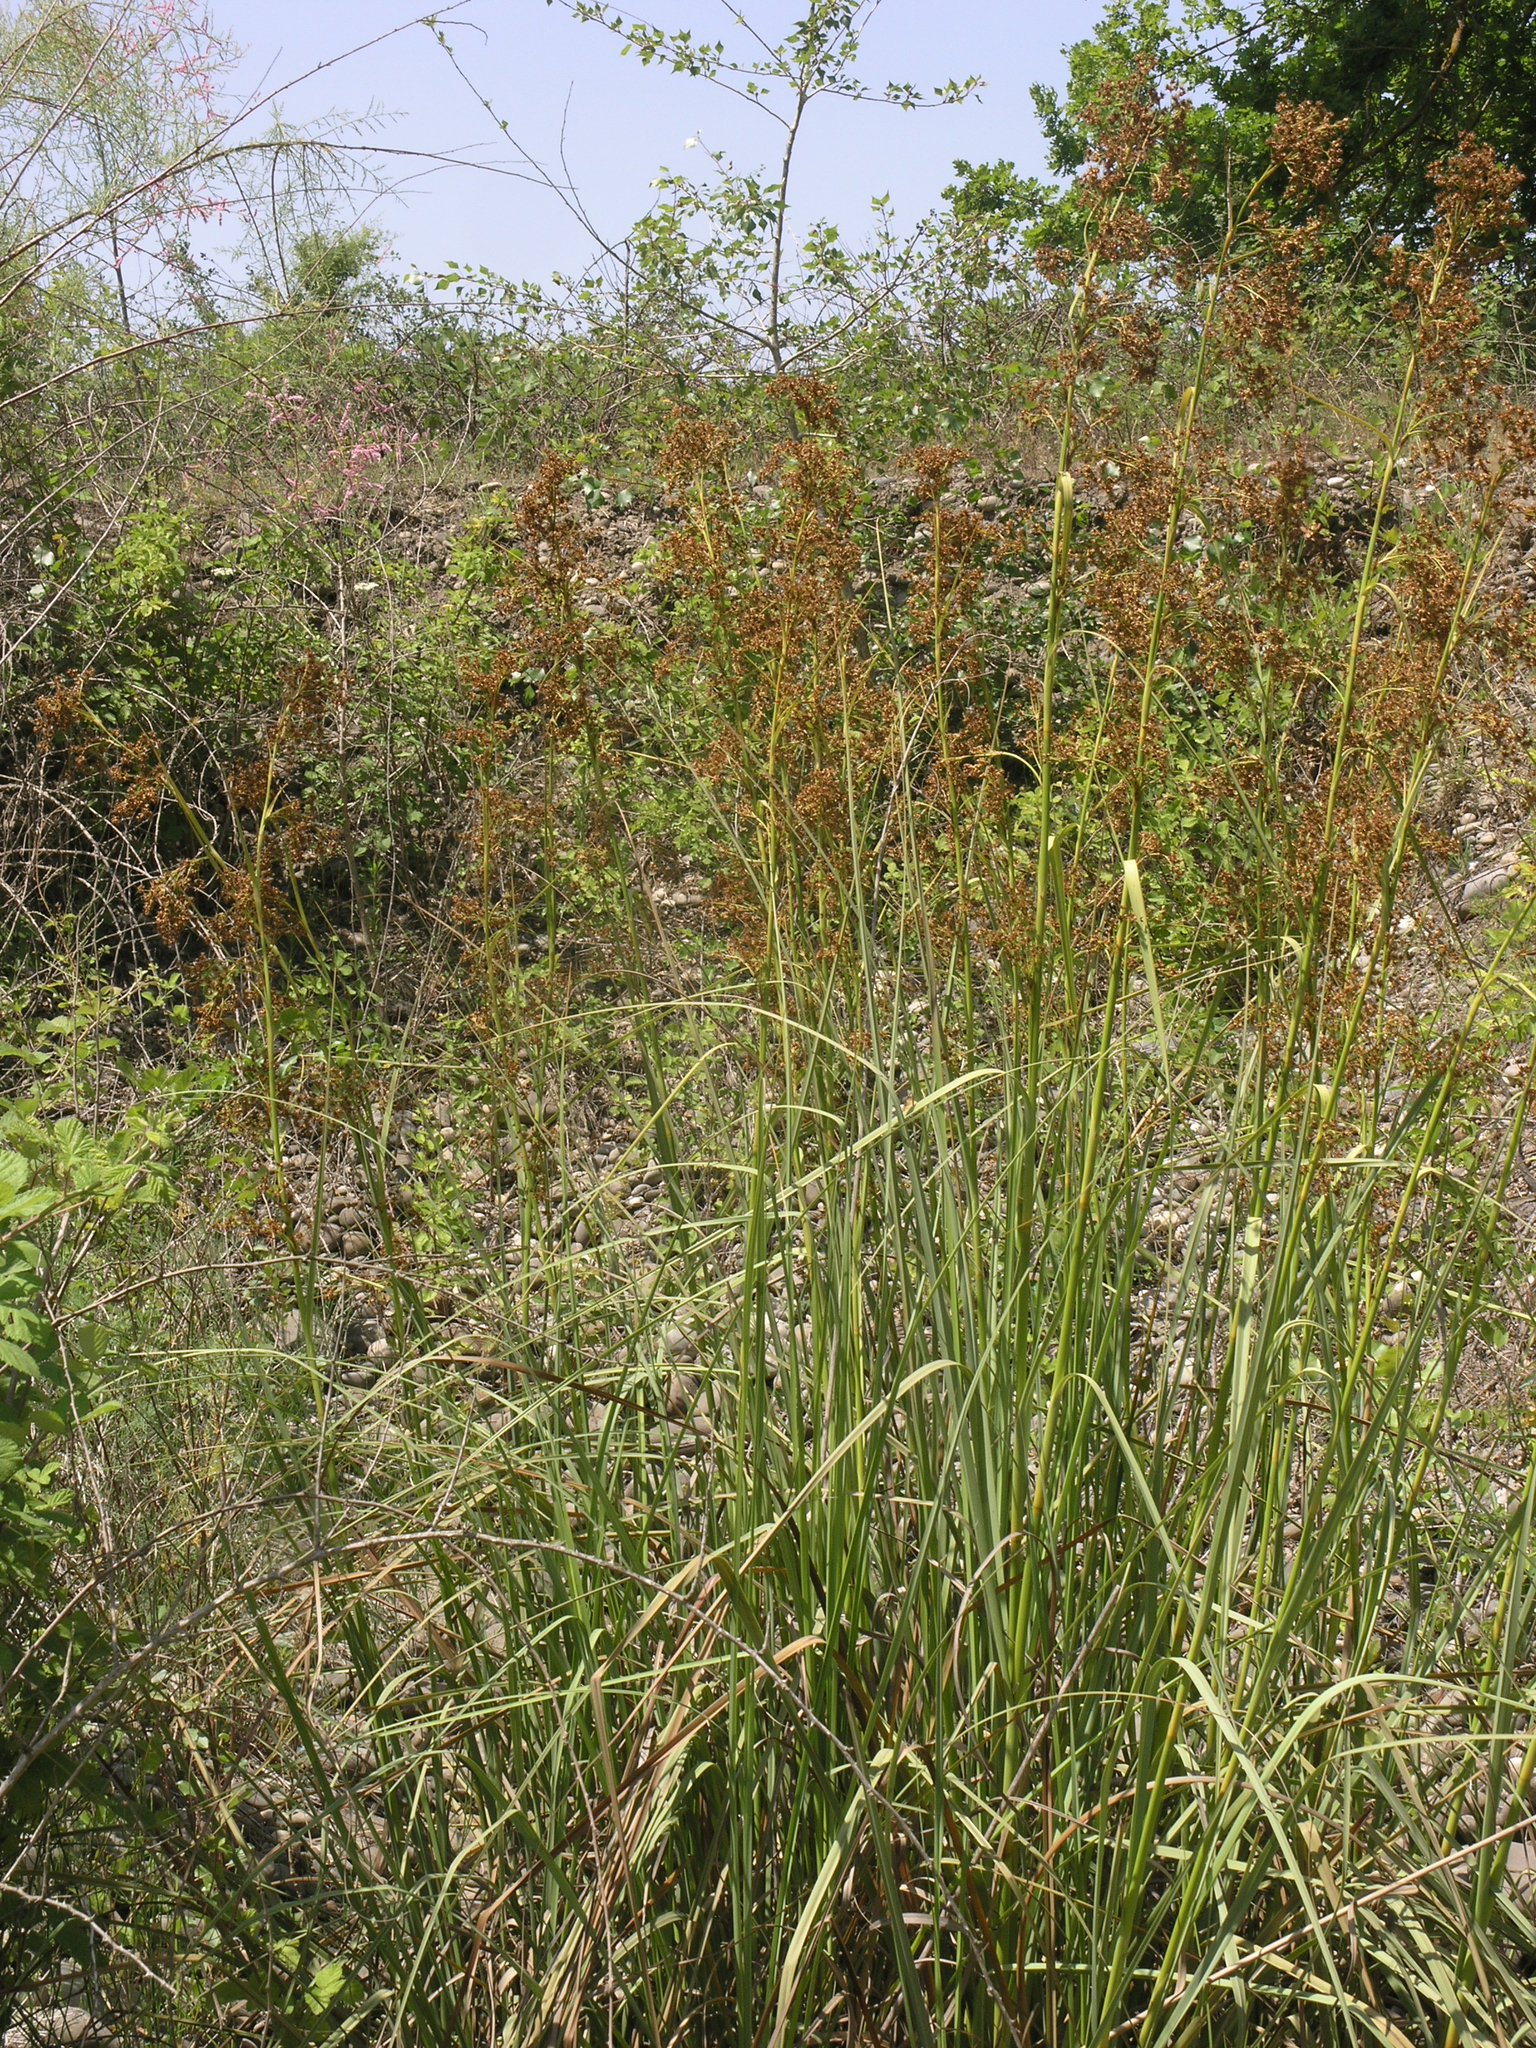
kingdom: Plantae
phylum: Tracheophyta
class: Liliopsida
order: Poales
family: Cyperaceae
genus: Cladium
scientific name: Cladium mariscus
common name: Great fen-sedge
